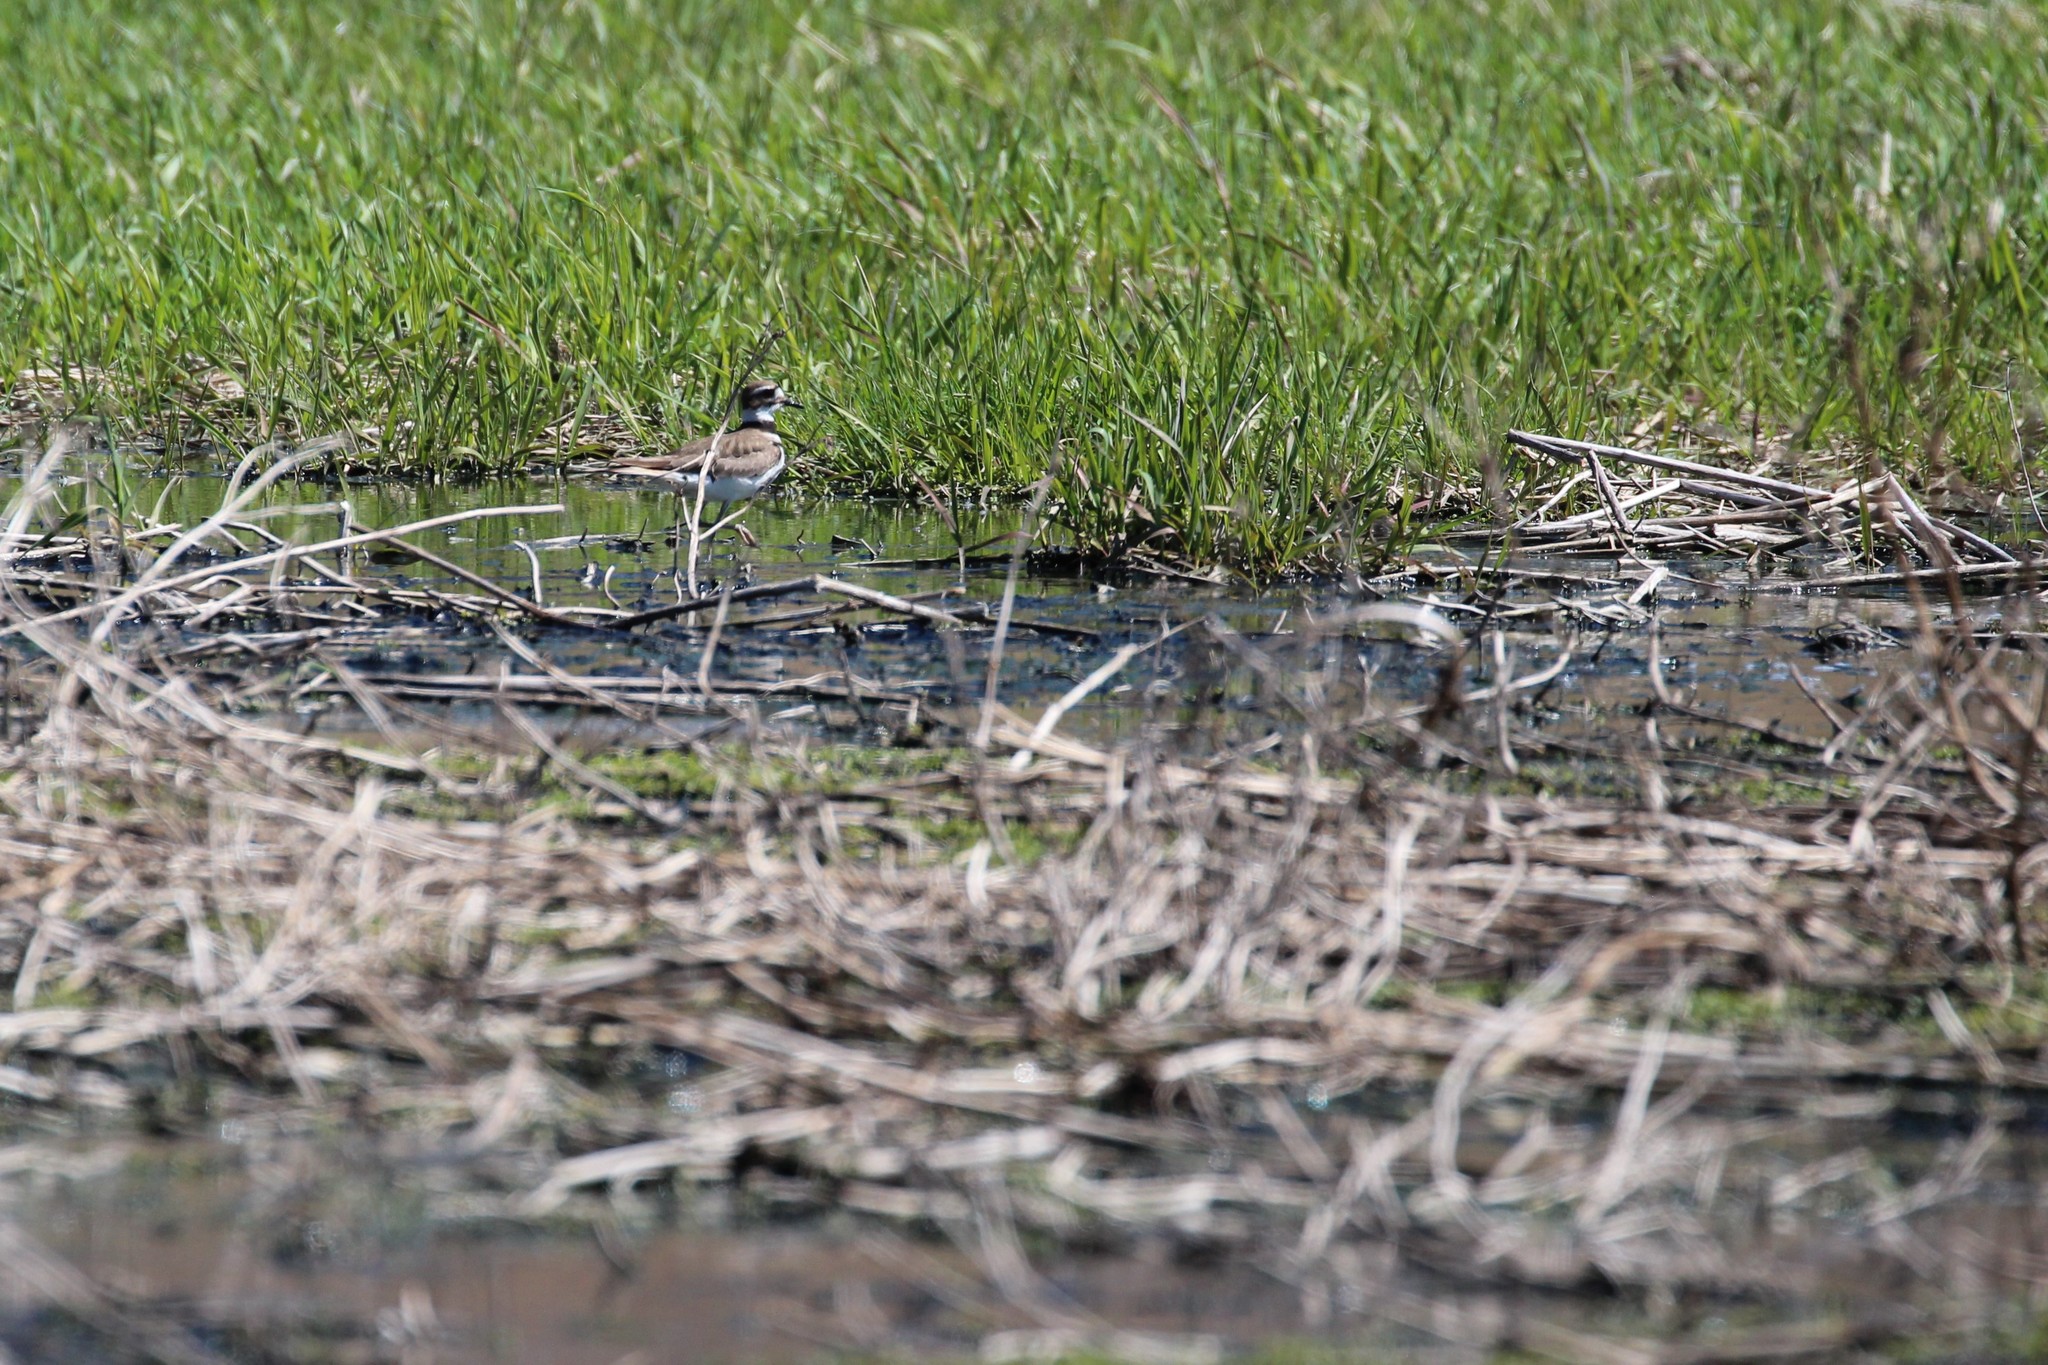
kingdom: Animalia
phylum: Chordata
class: Aves
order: Charadriiformes
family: Charadriidae
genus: Charadrius
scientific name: Charadrius vociferus
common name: Killdeer
